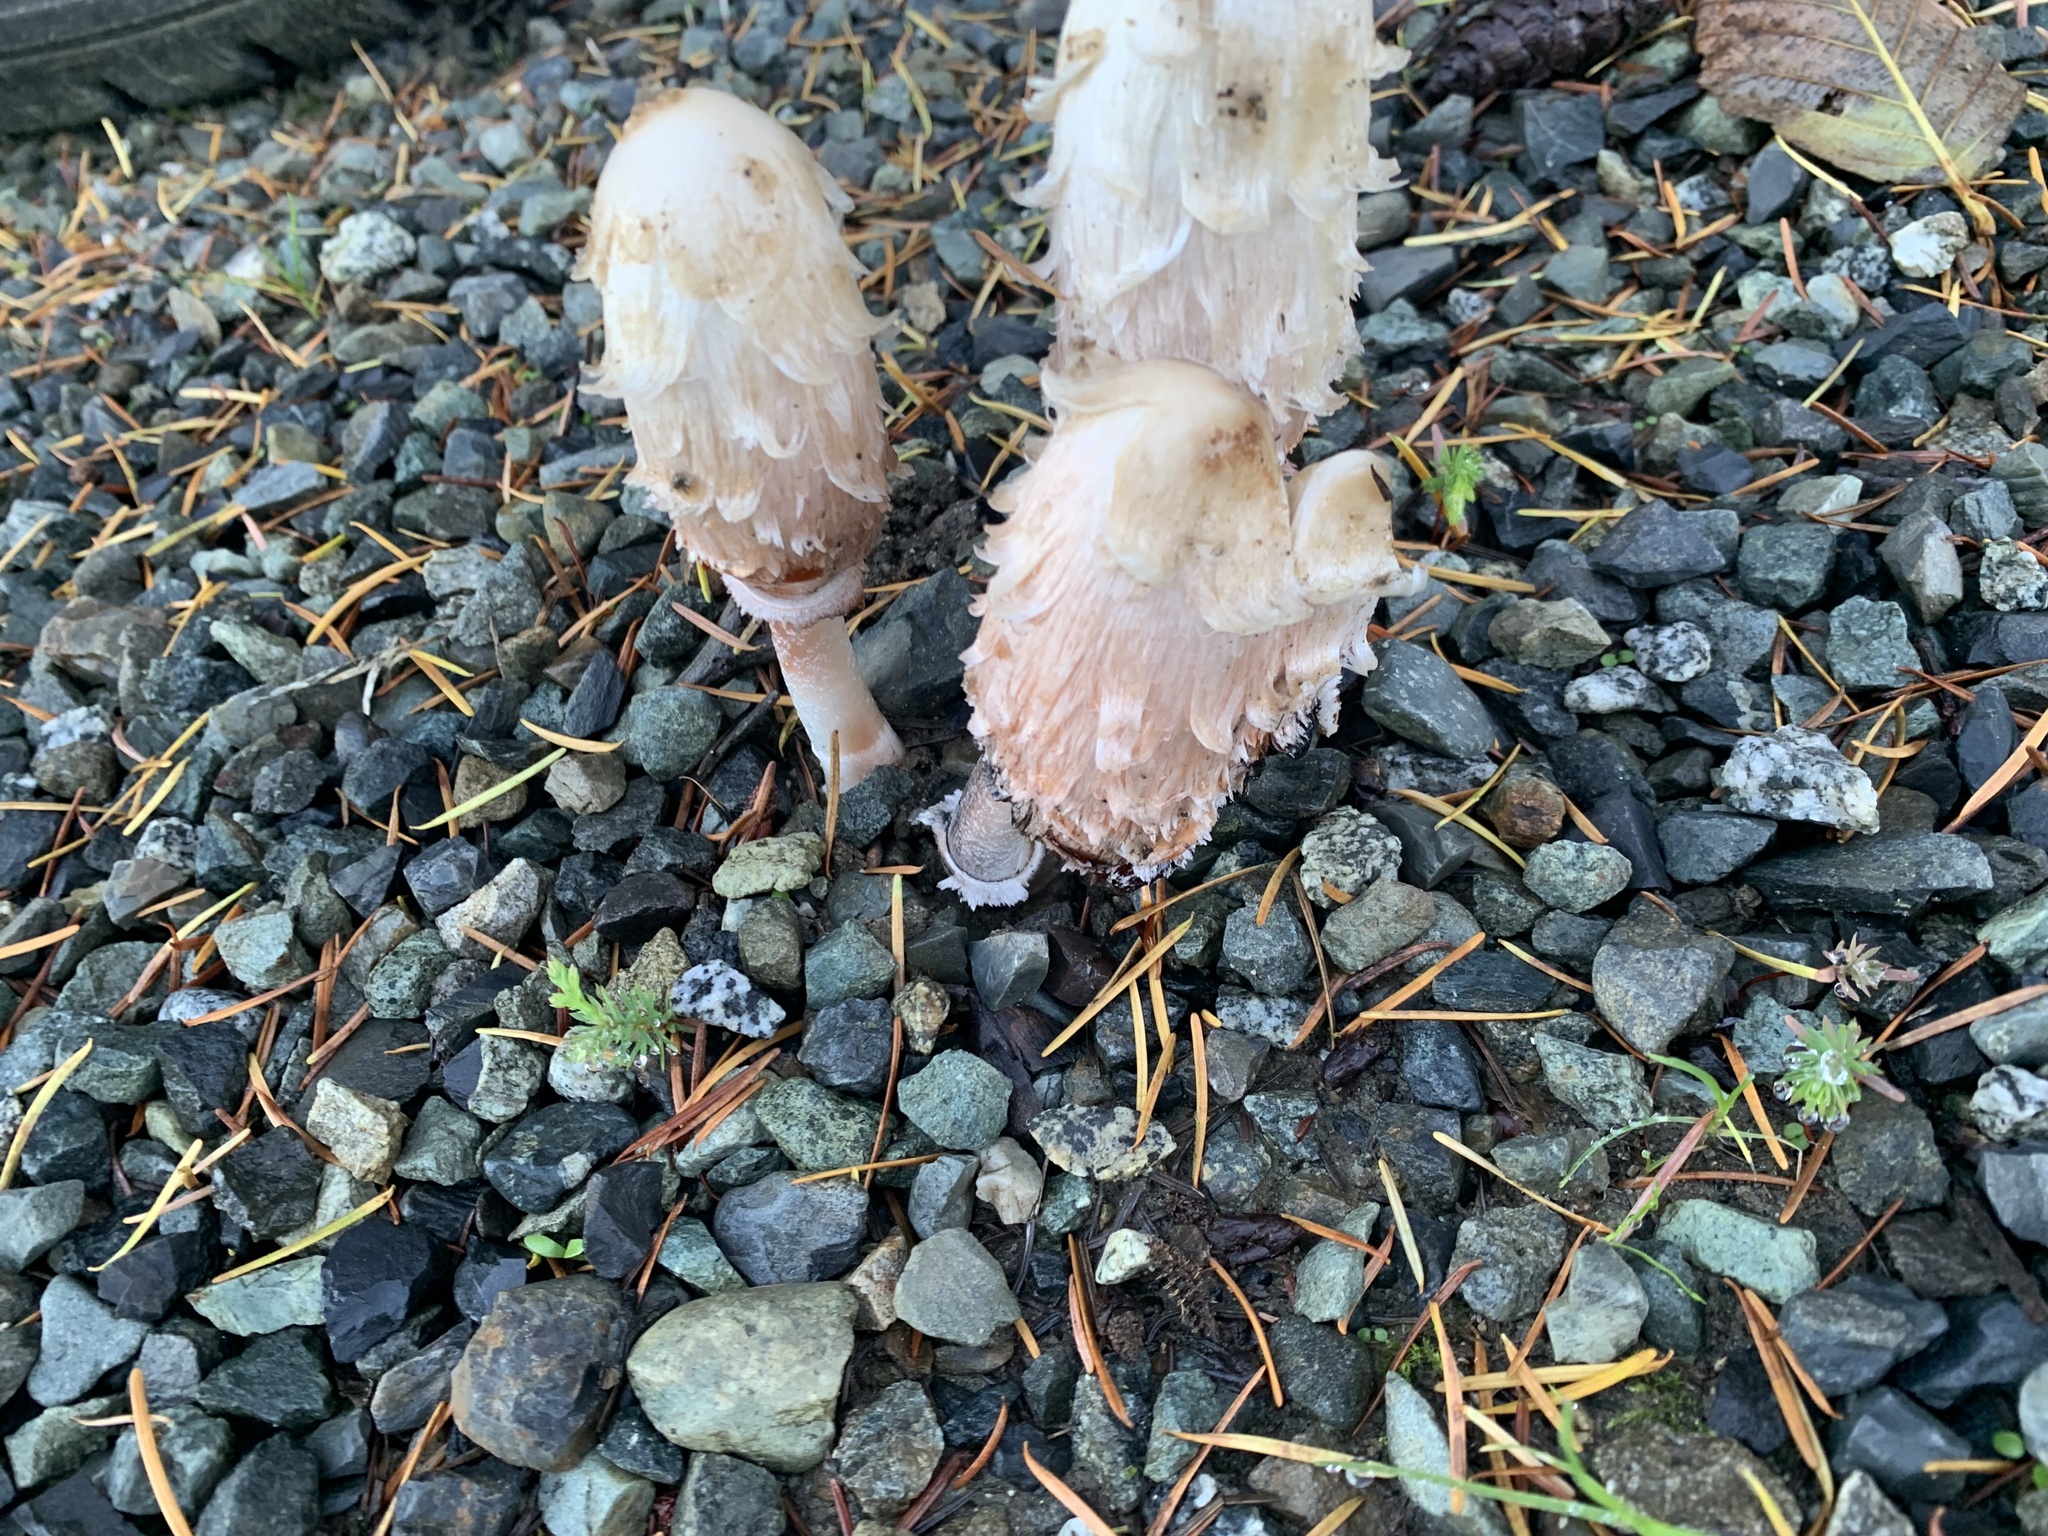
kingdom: Fungi
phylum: Basidiomycota
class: Agaricomycetes
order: Agaricales
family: Agaricaceae
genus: Coprinus
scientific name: Coprinus comatus
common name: Lawyer's wig
